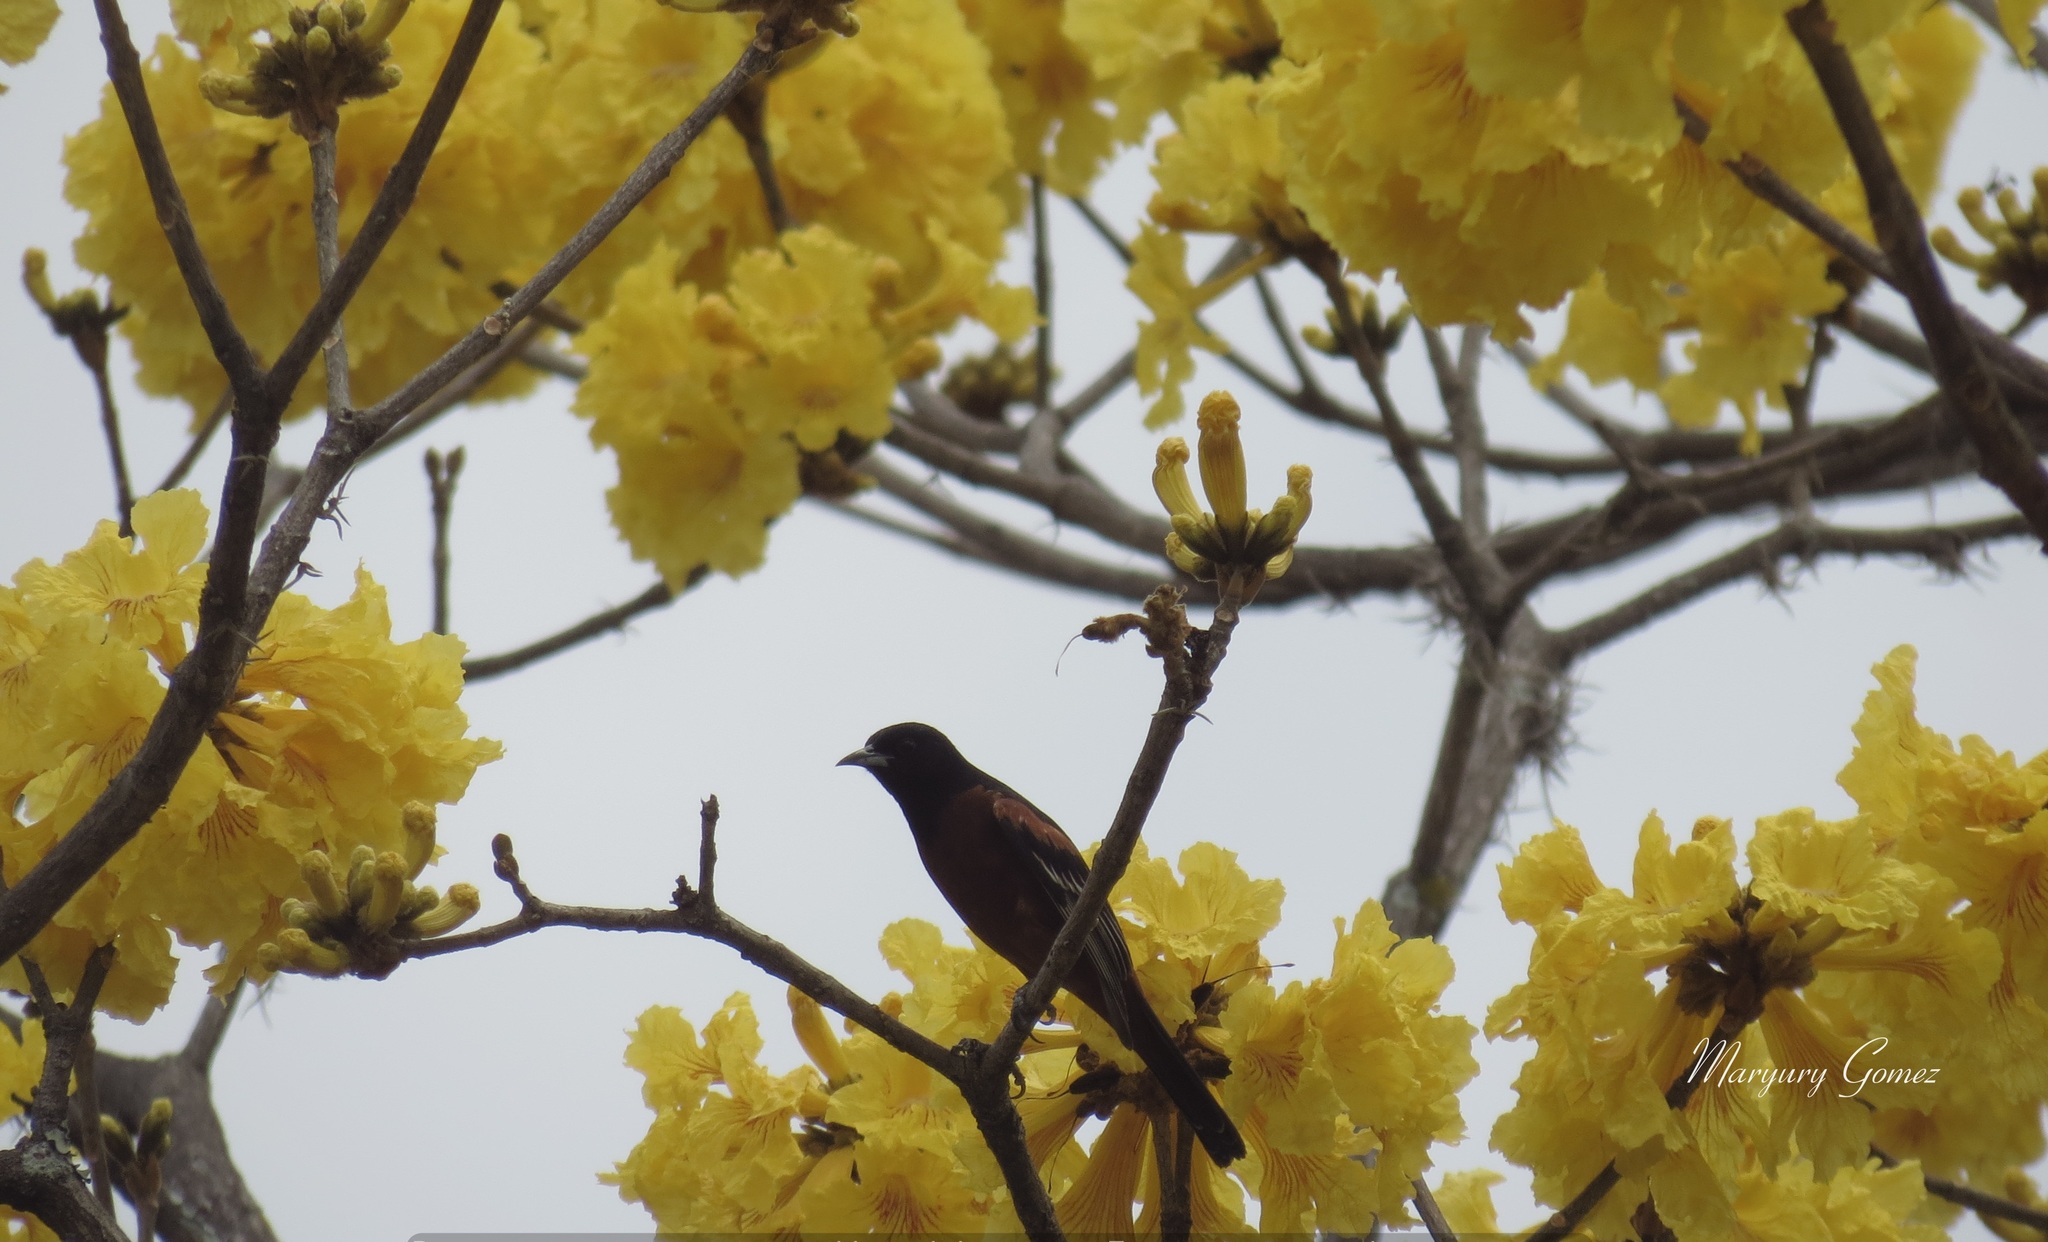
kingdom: Animalia
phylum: Chordata
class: Aves
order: Passeriformes
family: Icteridae
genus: Icterus
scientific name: Icterus spurius
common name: Orchard oriole
